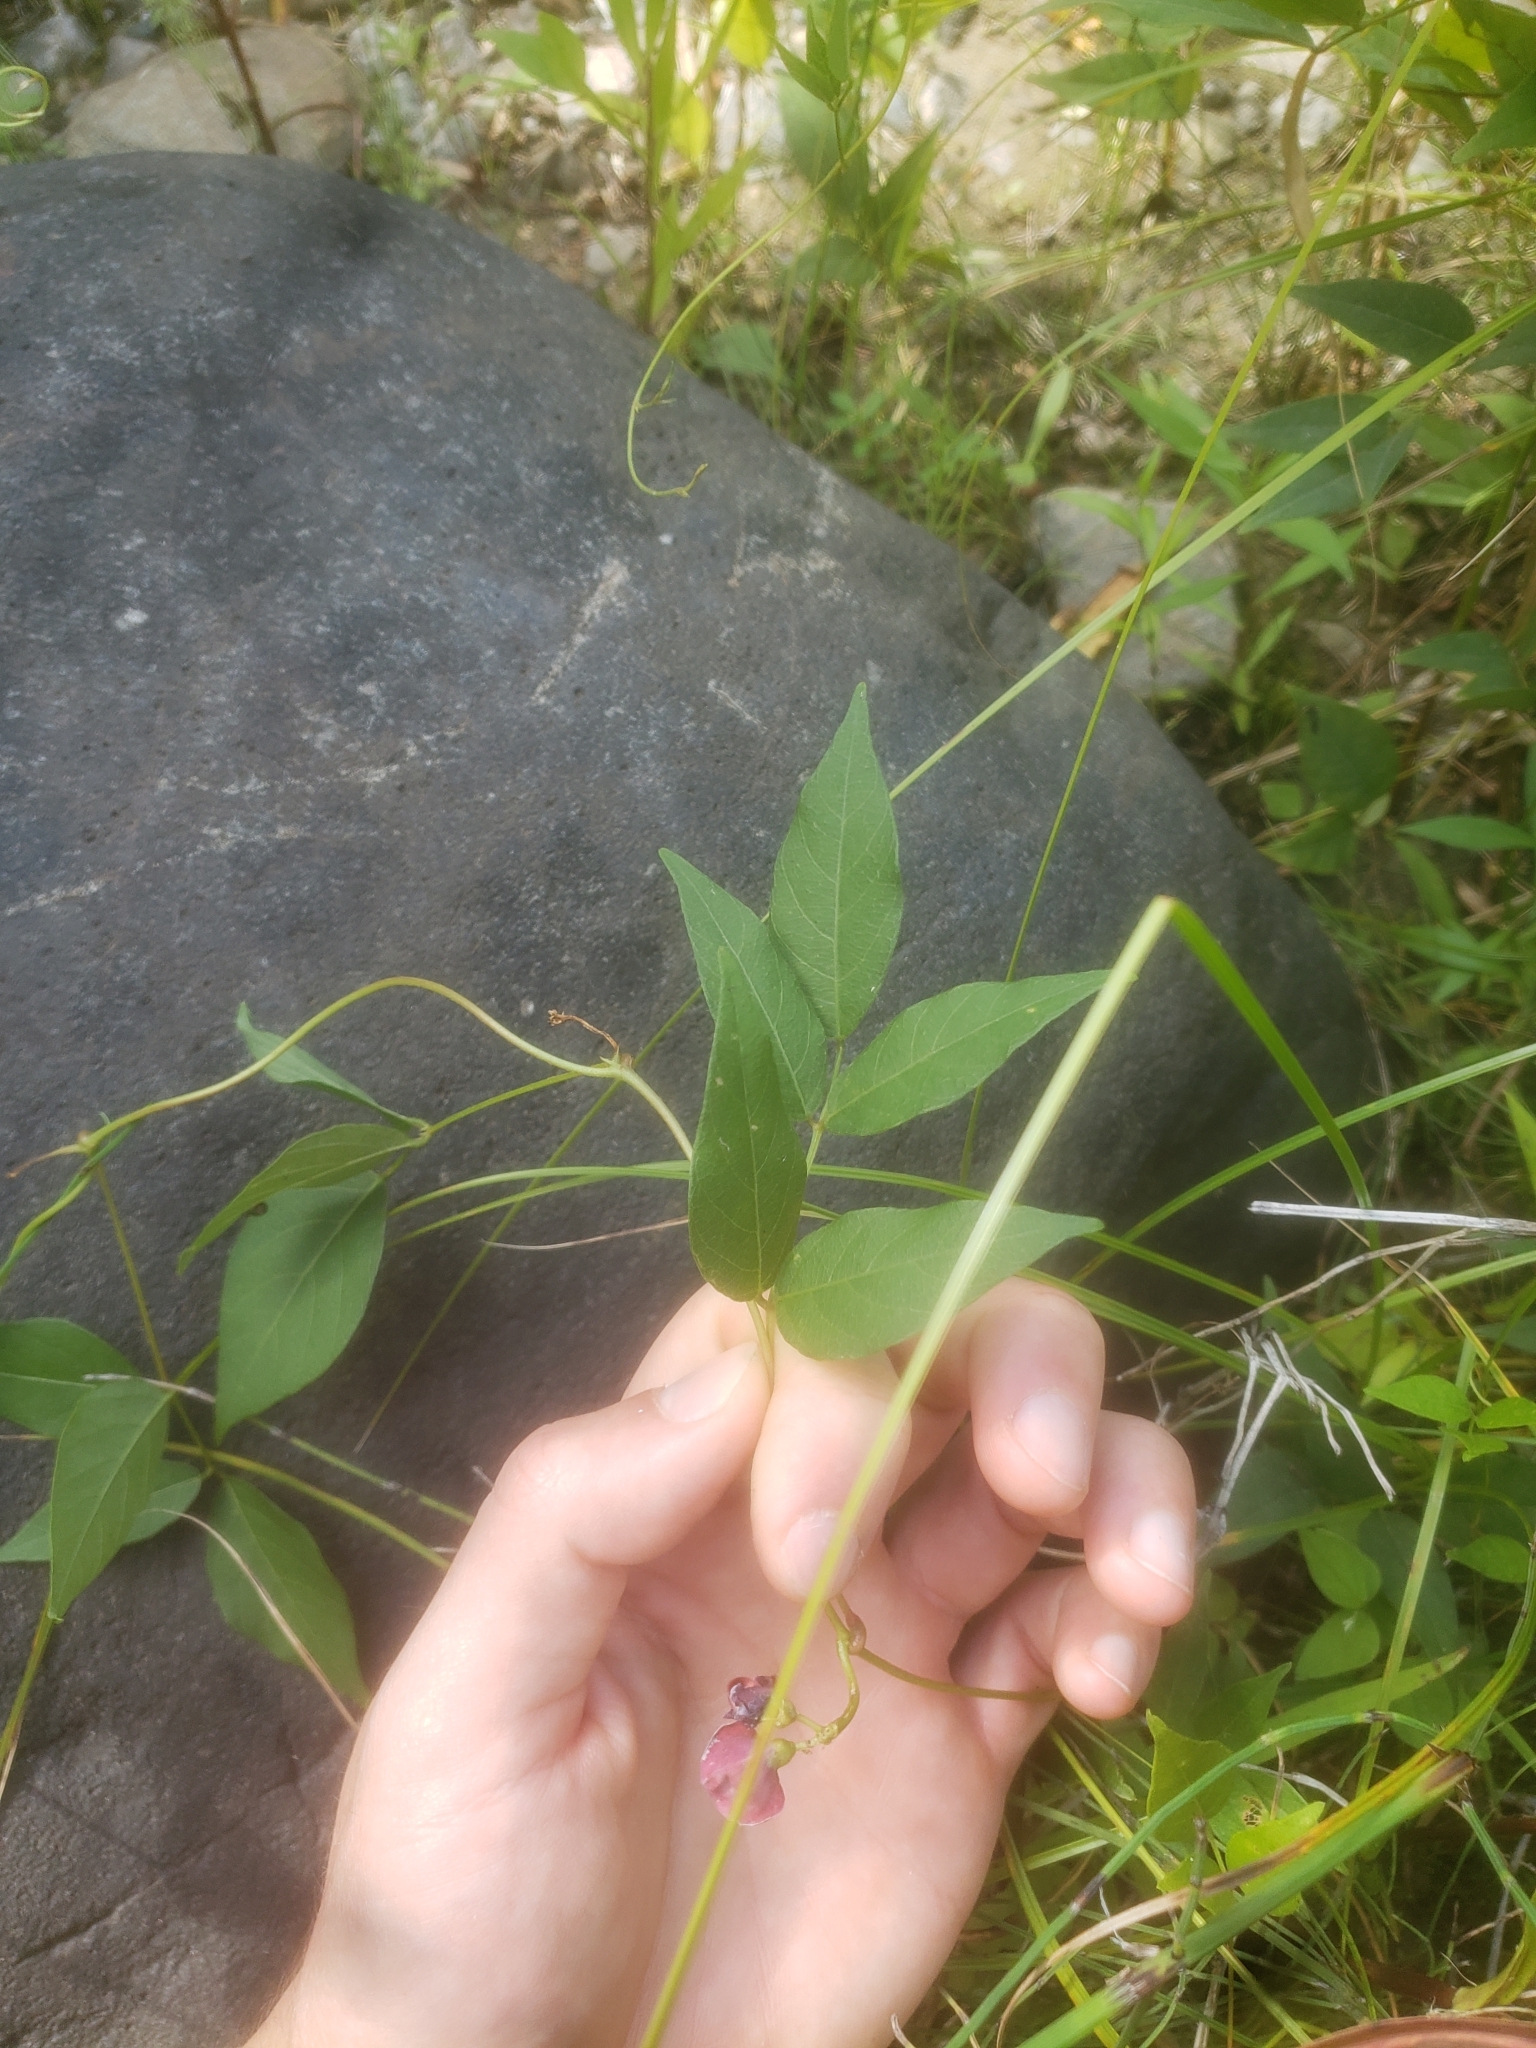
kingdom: Plantae
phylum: Tracheophyta
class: Magnoliopsida
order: Fabales
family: Fabaceae
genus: Apios
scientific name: Apios americana
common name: American potato-bean
